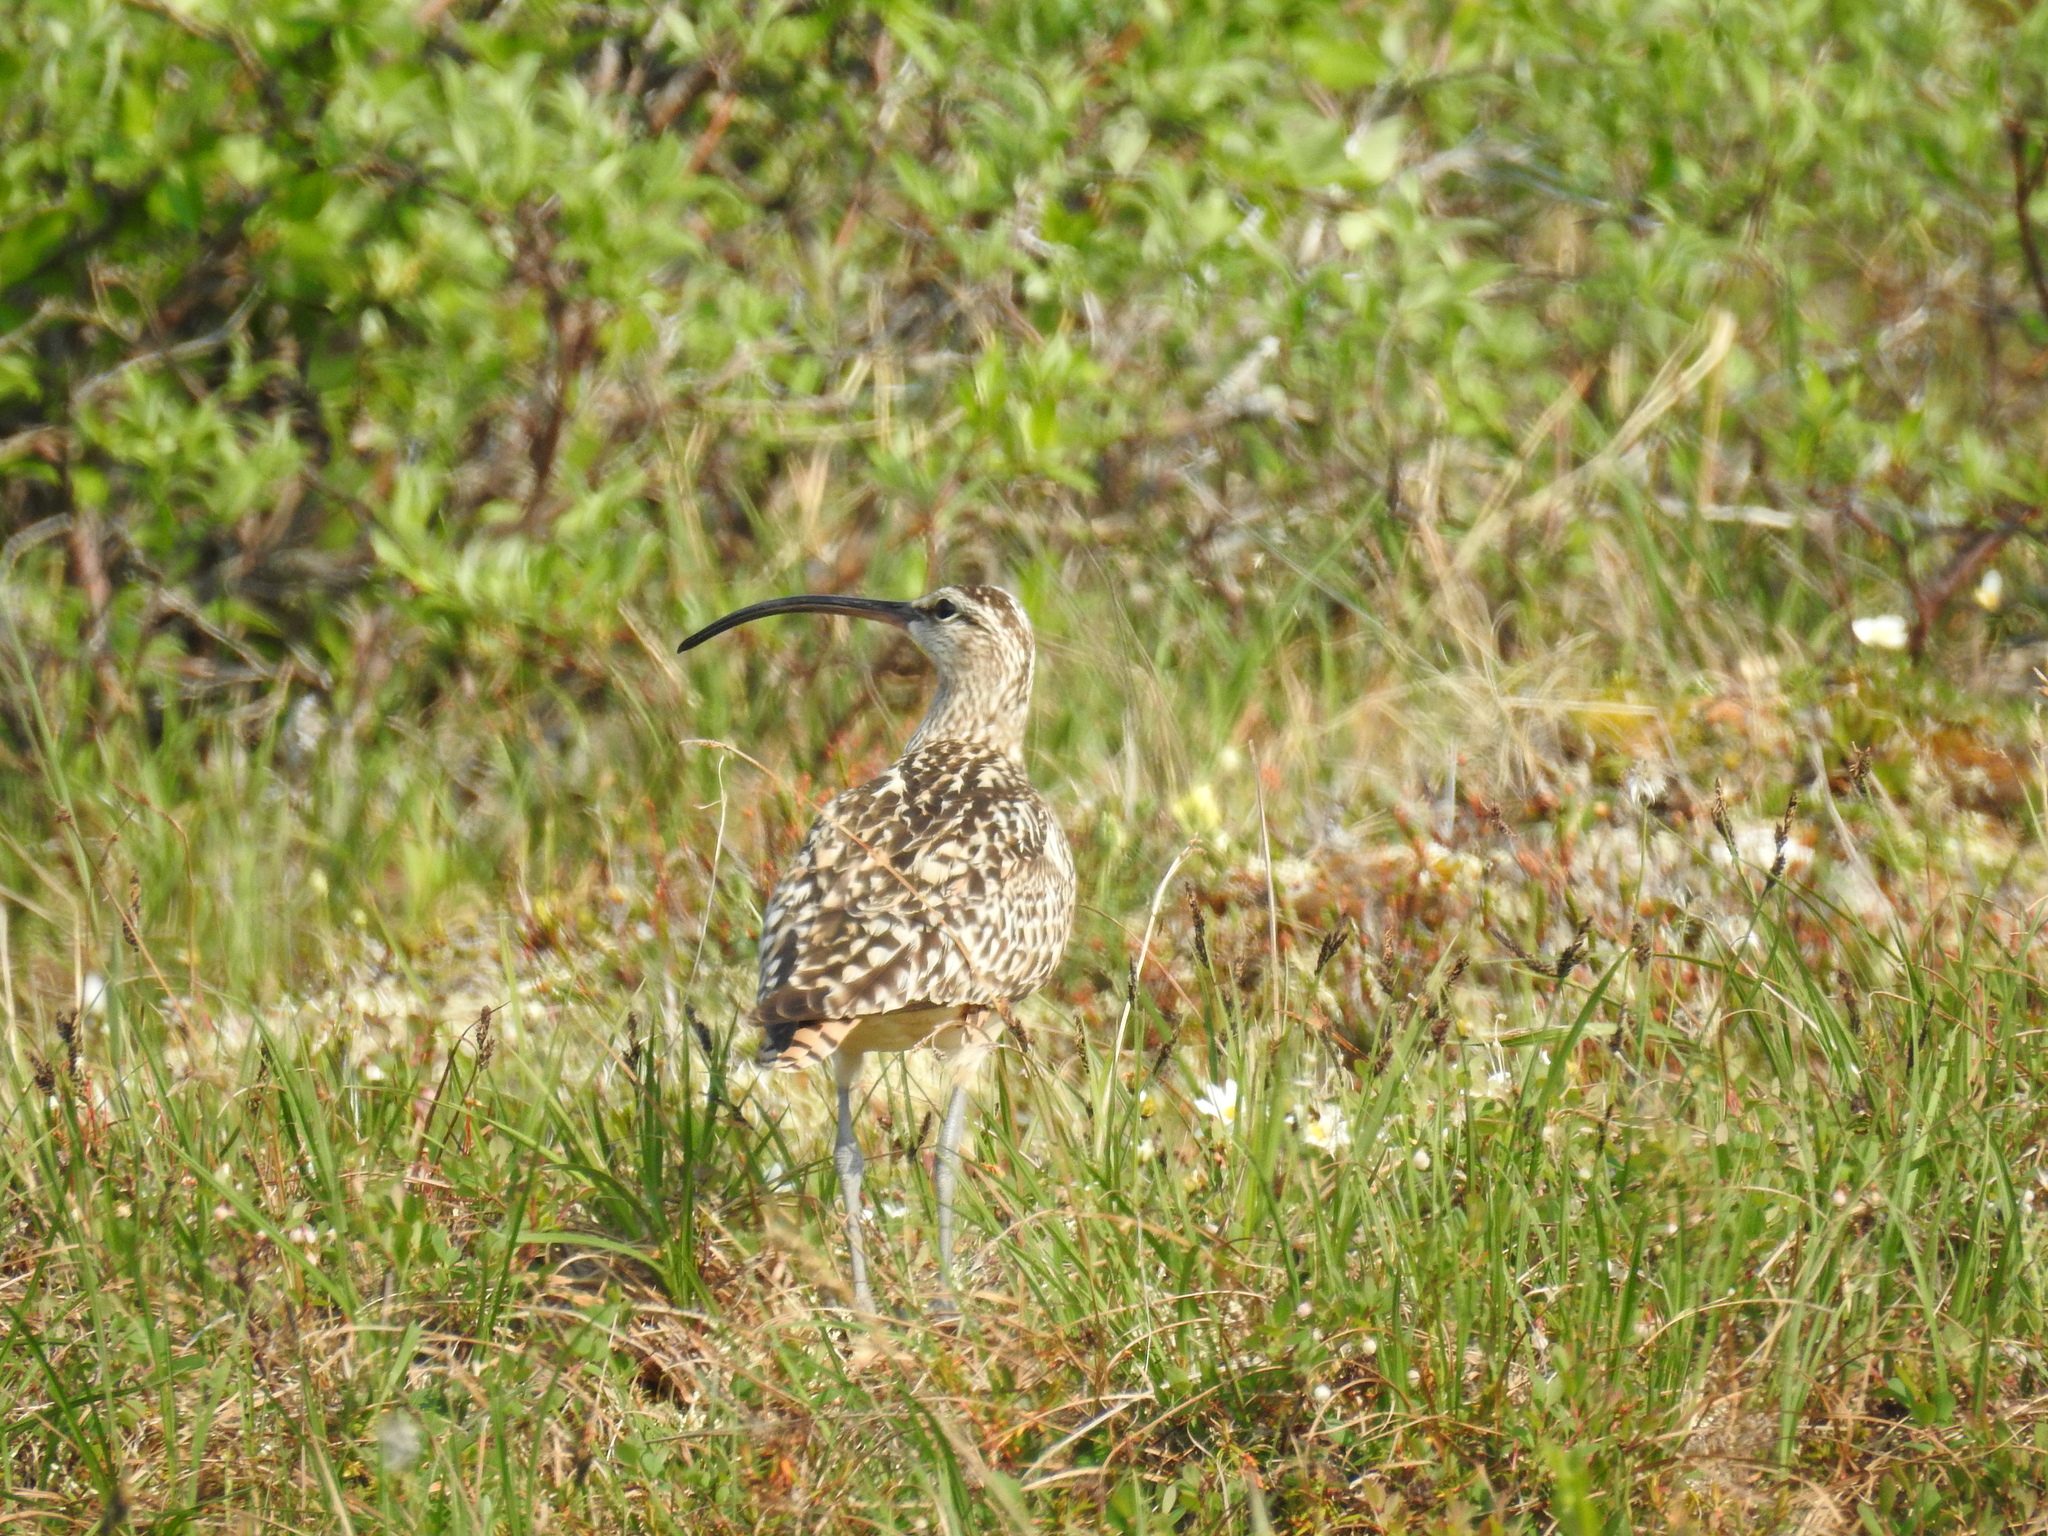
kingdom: Animalia
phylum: Chordata
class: Aves
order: Charadriiformes
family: Scolopacidae
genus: Numenius
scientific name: Numenius tahitiensis
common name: Bristle-thighed curlew
